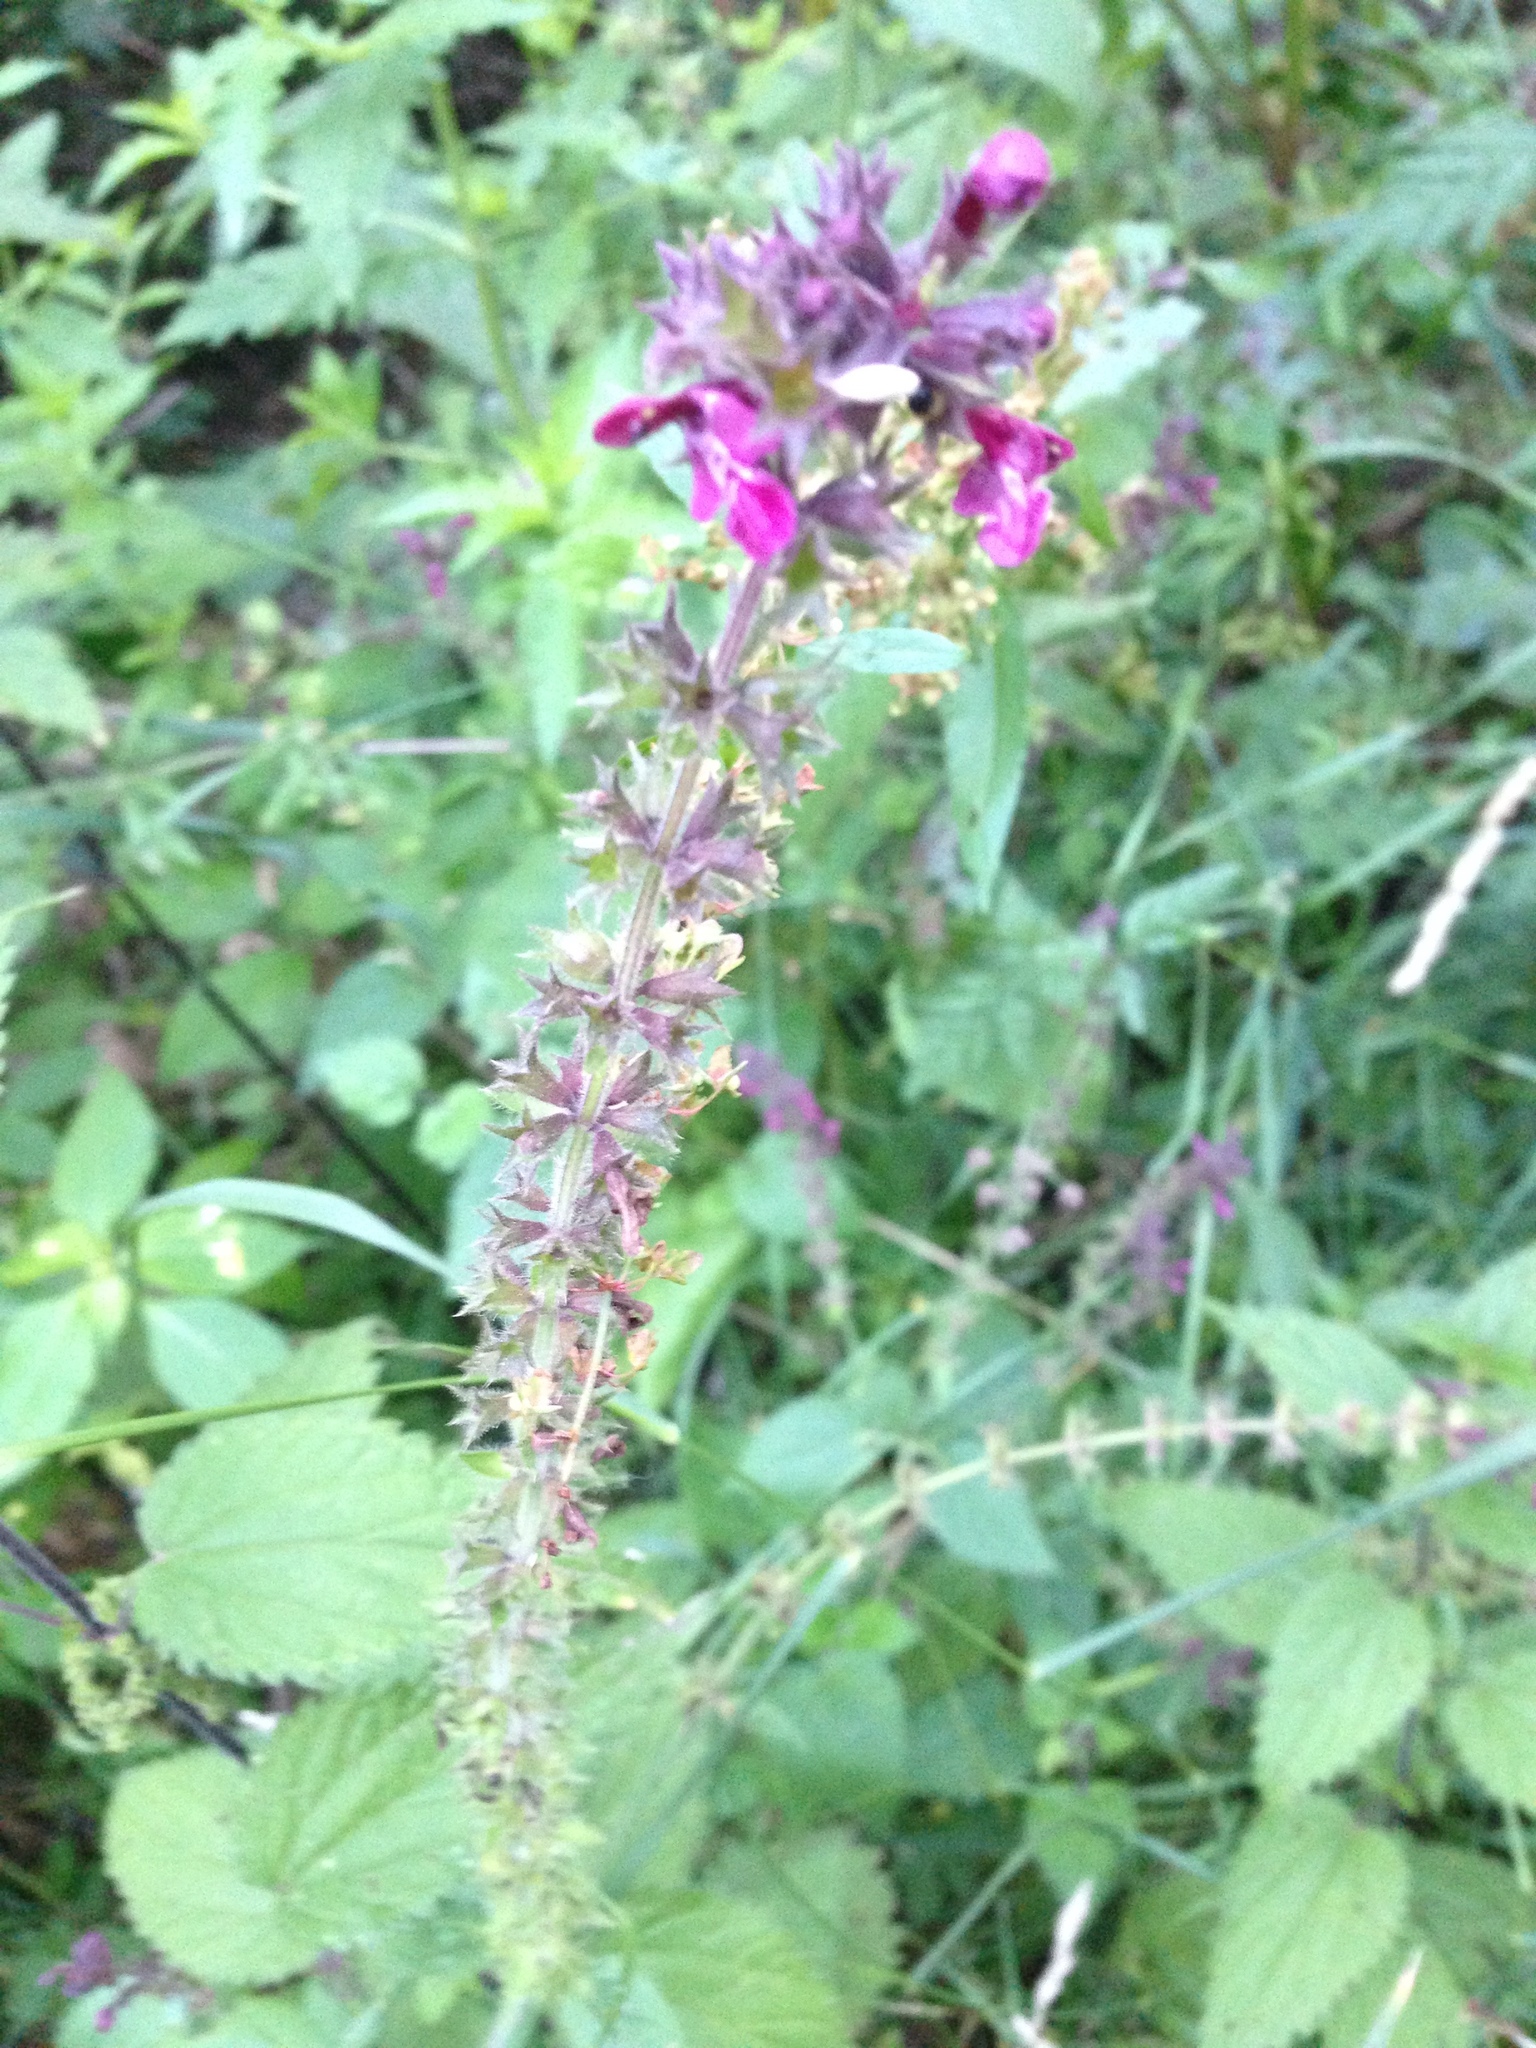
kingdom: Plantae
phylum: Tracheophyta
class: Magnoliopsida
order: Lamiales
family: Lamiaceae
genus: Stachys
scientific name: Stachys sylvatica
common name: Hedge woundwort
